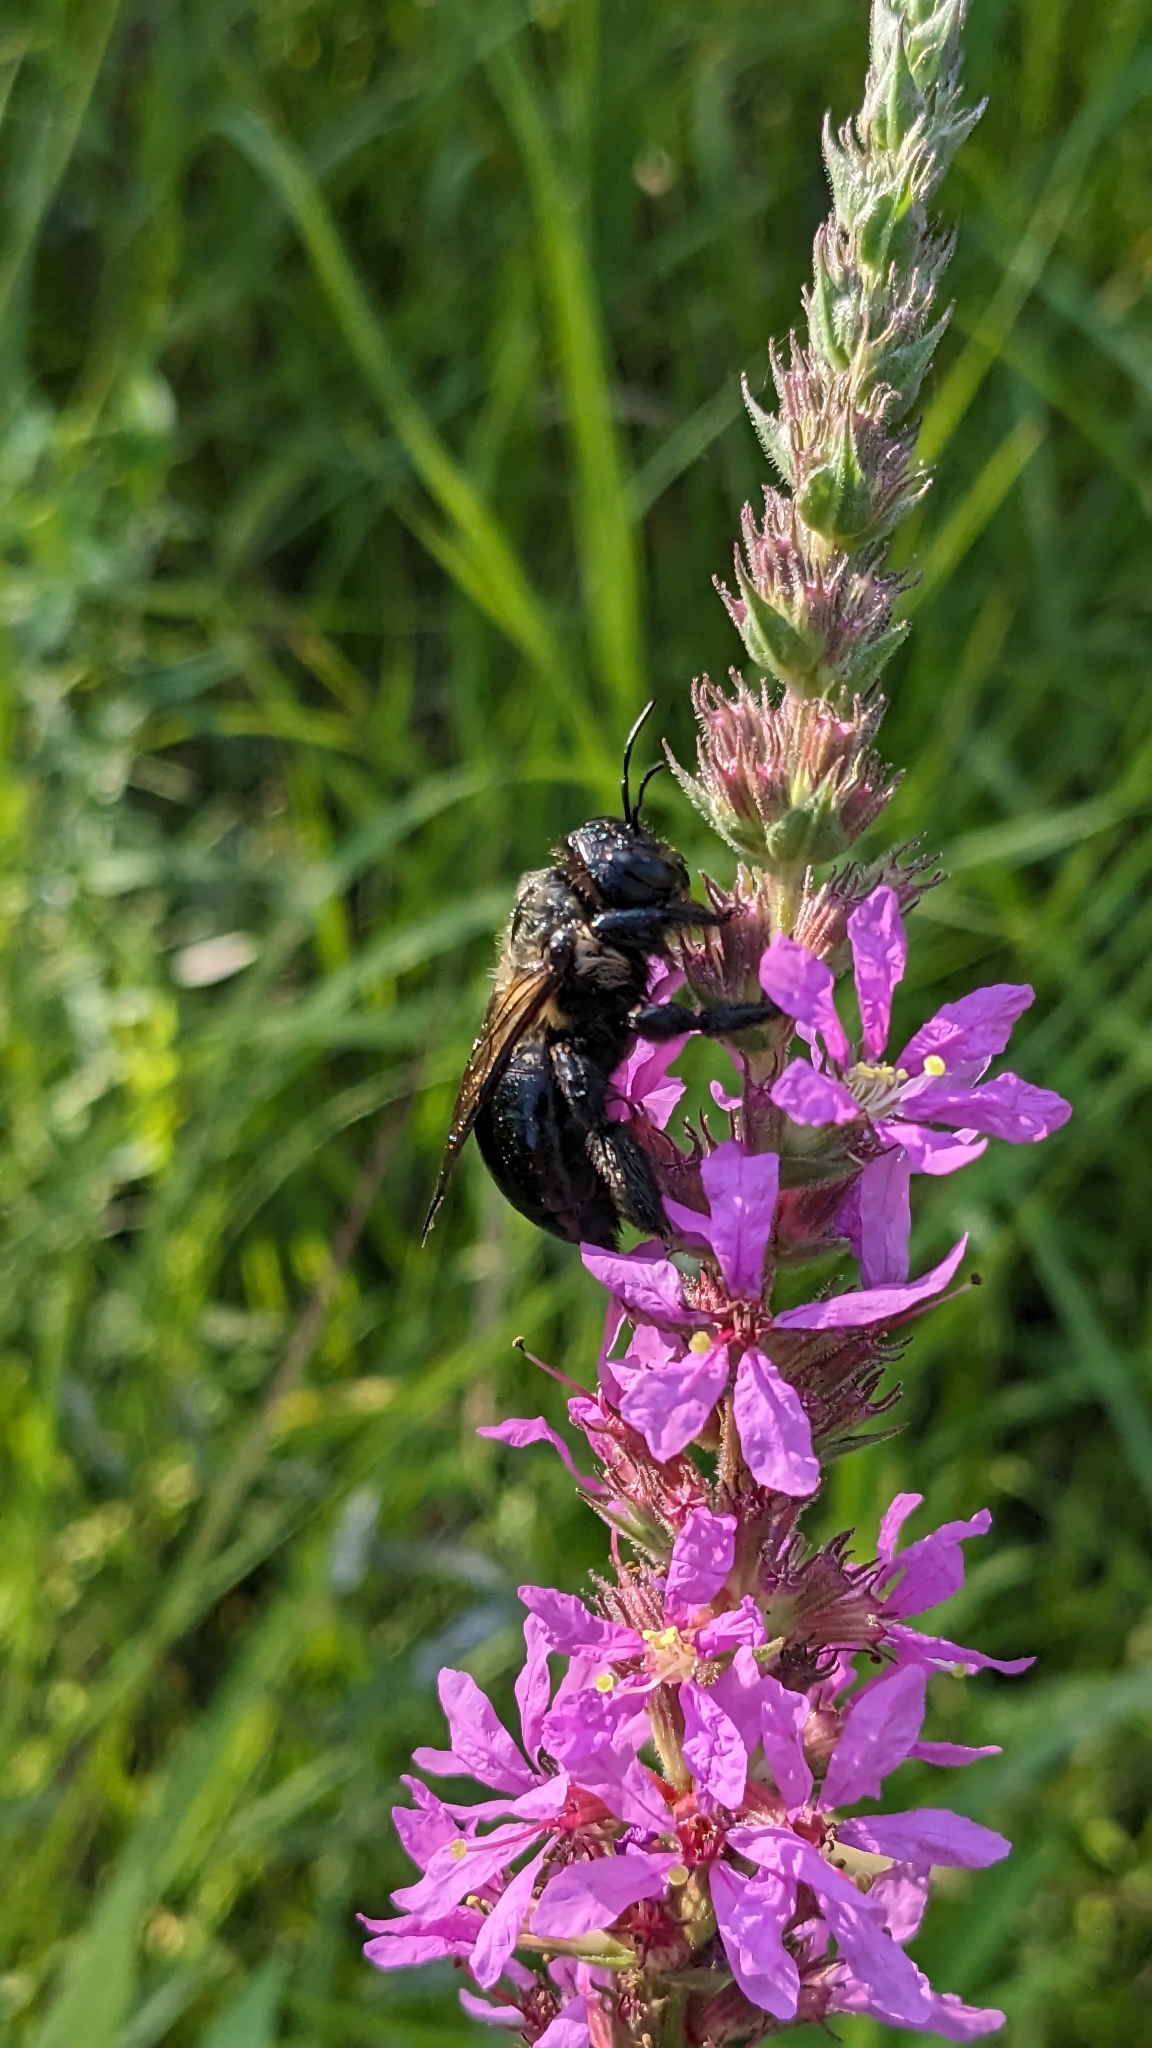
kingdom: Animalia
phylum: Arthropoda
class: Insecta
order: Hymenoptera
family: Apidae
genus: Xylocopa
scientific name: Xylocopa virginica
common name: Carpenter bee
